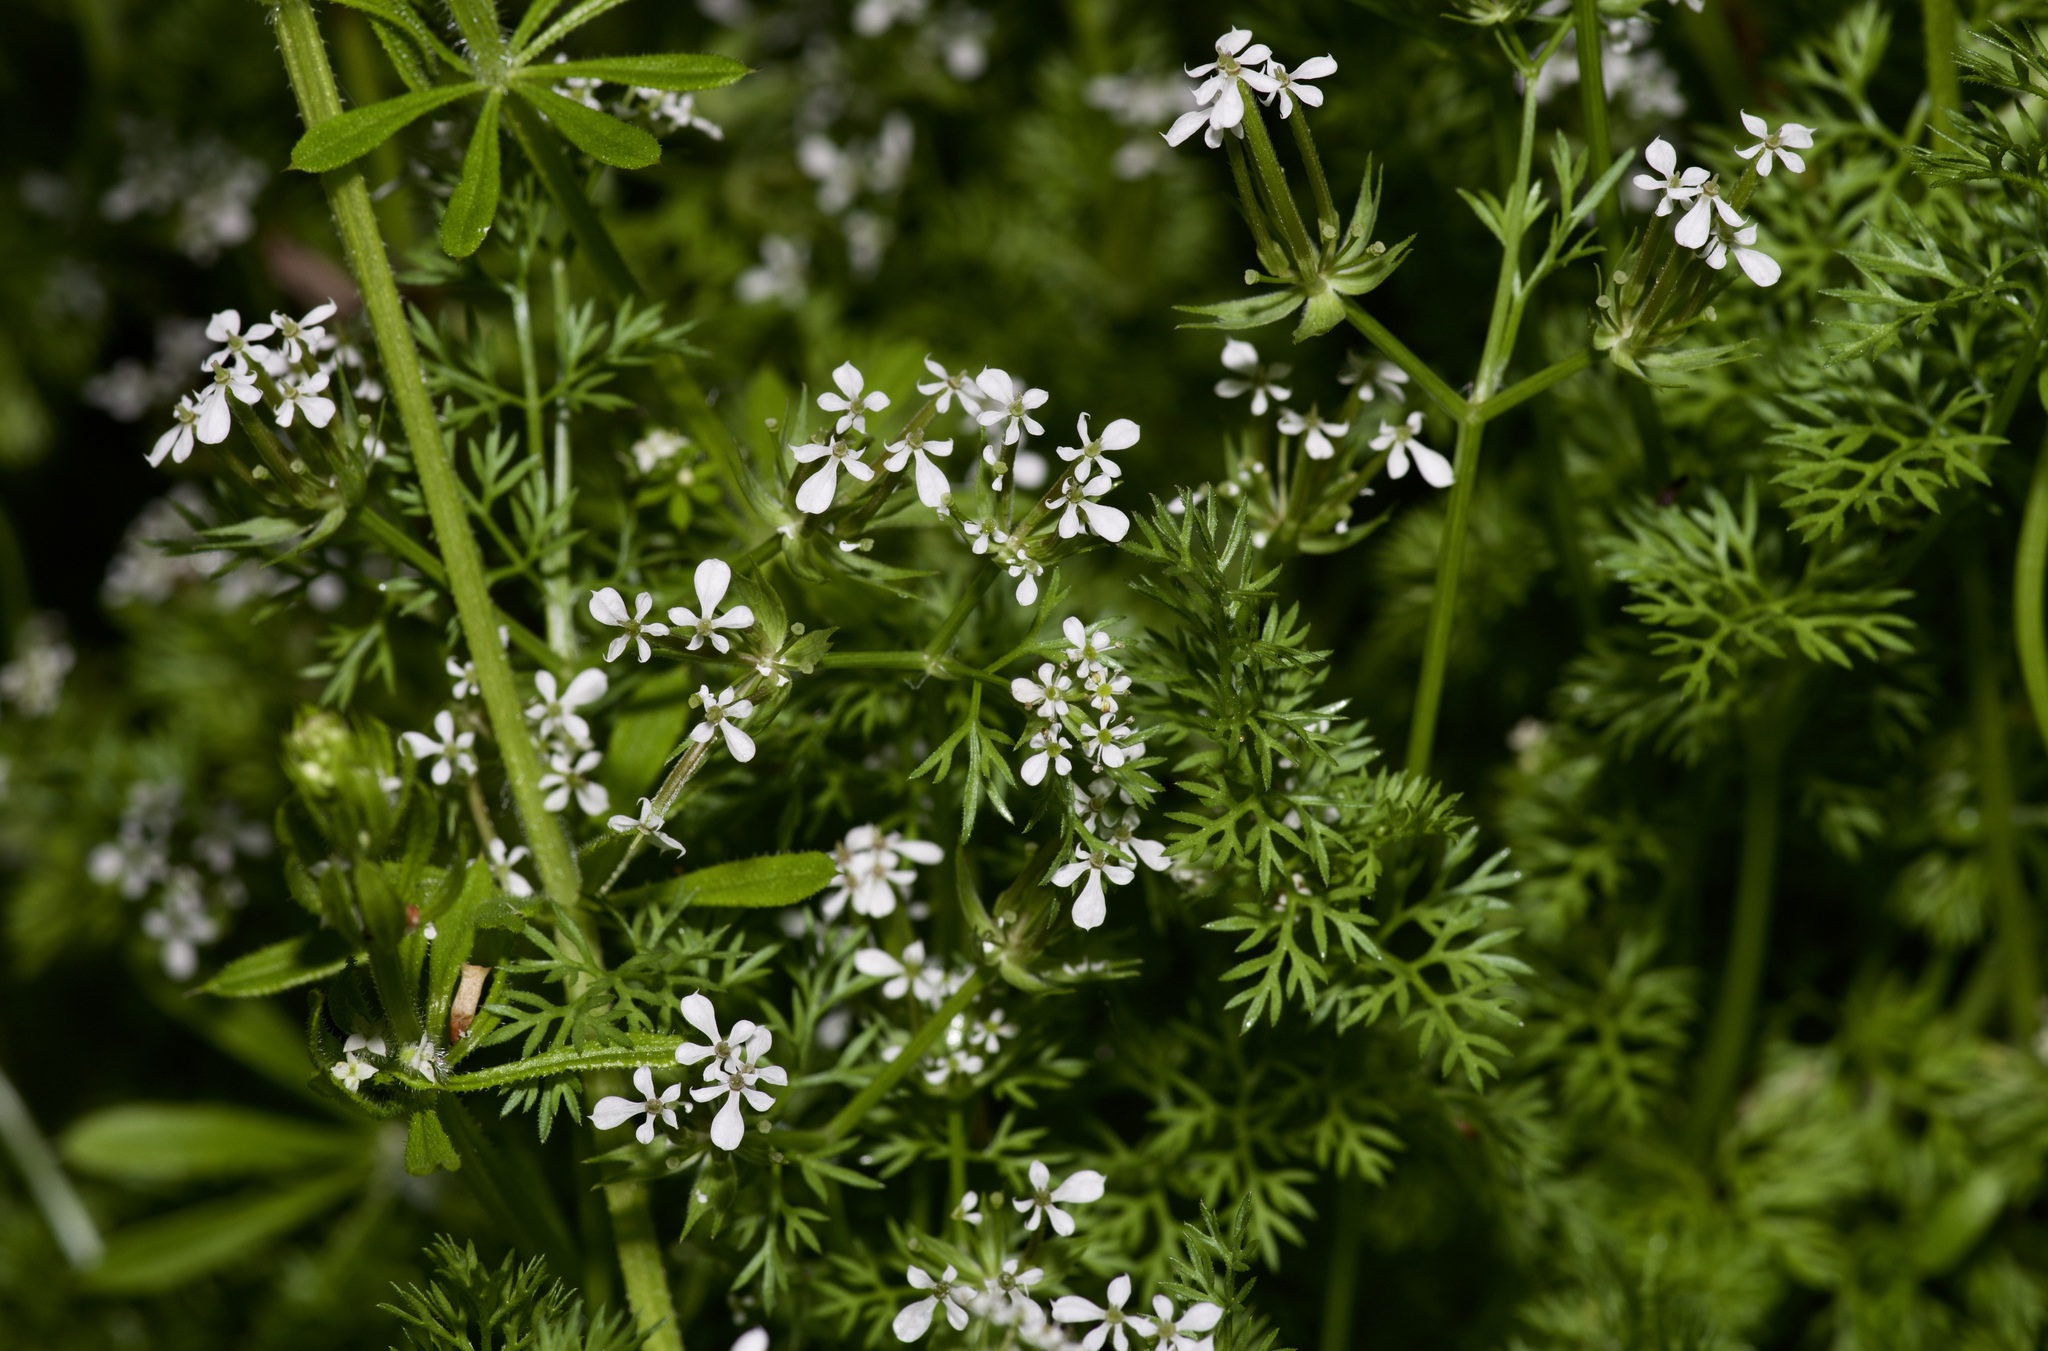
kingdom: Plantae
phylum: Tracheophyta
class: Magnoliopsida
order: Apiales
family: Apiaceae
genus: Scandix
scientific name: Scandix pecten-veneris
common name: Shepherd's-needle
